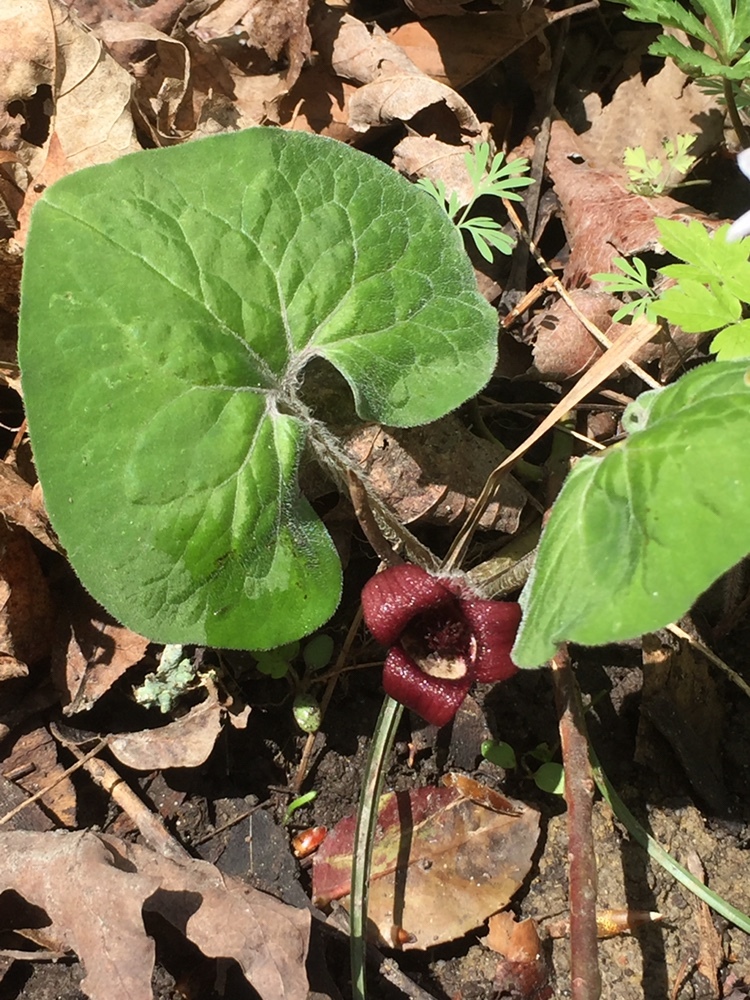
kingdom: Plantae
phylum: Tracheophyta
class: Magnoliopsida
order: Piperales
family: Aristolochiaceae
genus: Asarum
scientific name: Asarum canadense
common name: Wild ginger
